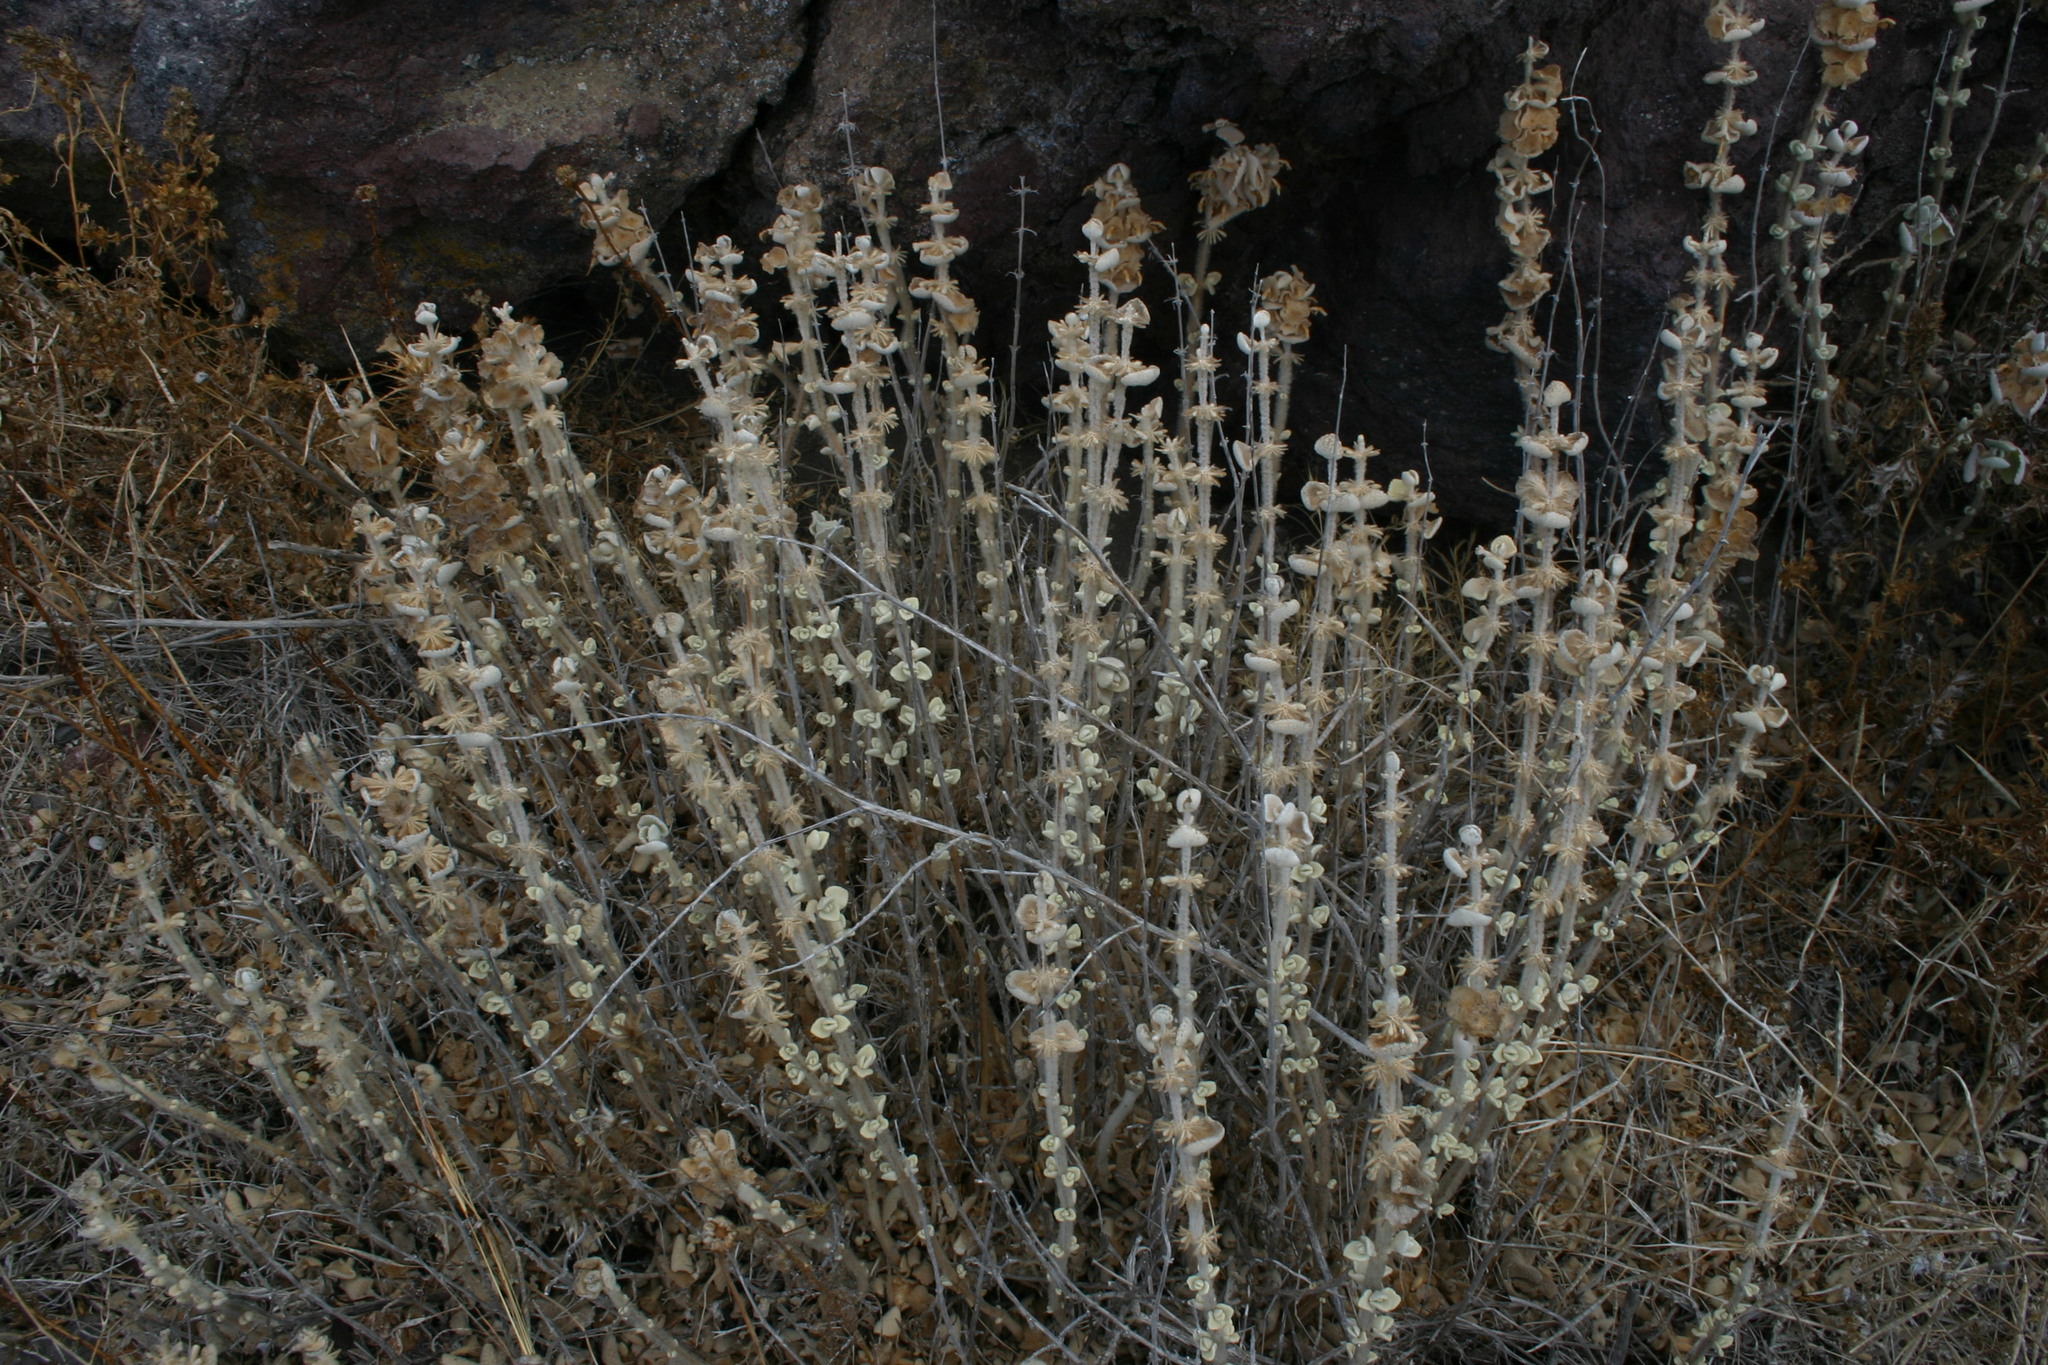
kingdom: Plantae
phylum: Tracheophyta
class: Magnoliopsida
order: Lamiales
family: Lamiaceae
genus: Pseudodictamnus
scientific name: Pseudodictamnus acetabulosus
